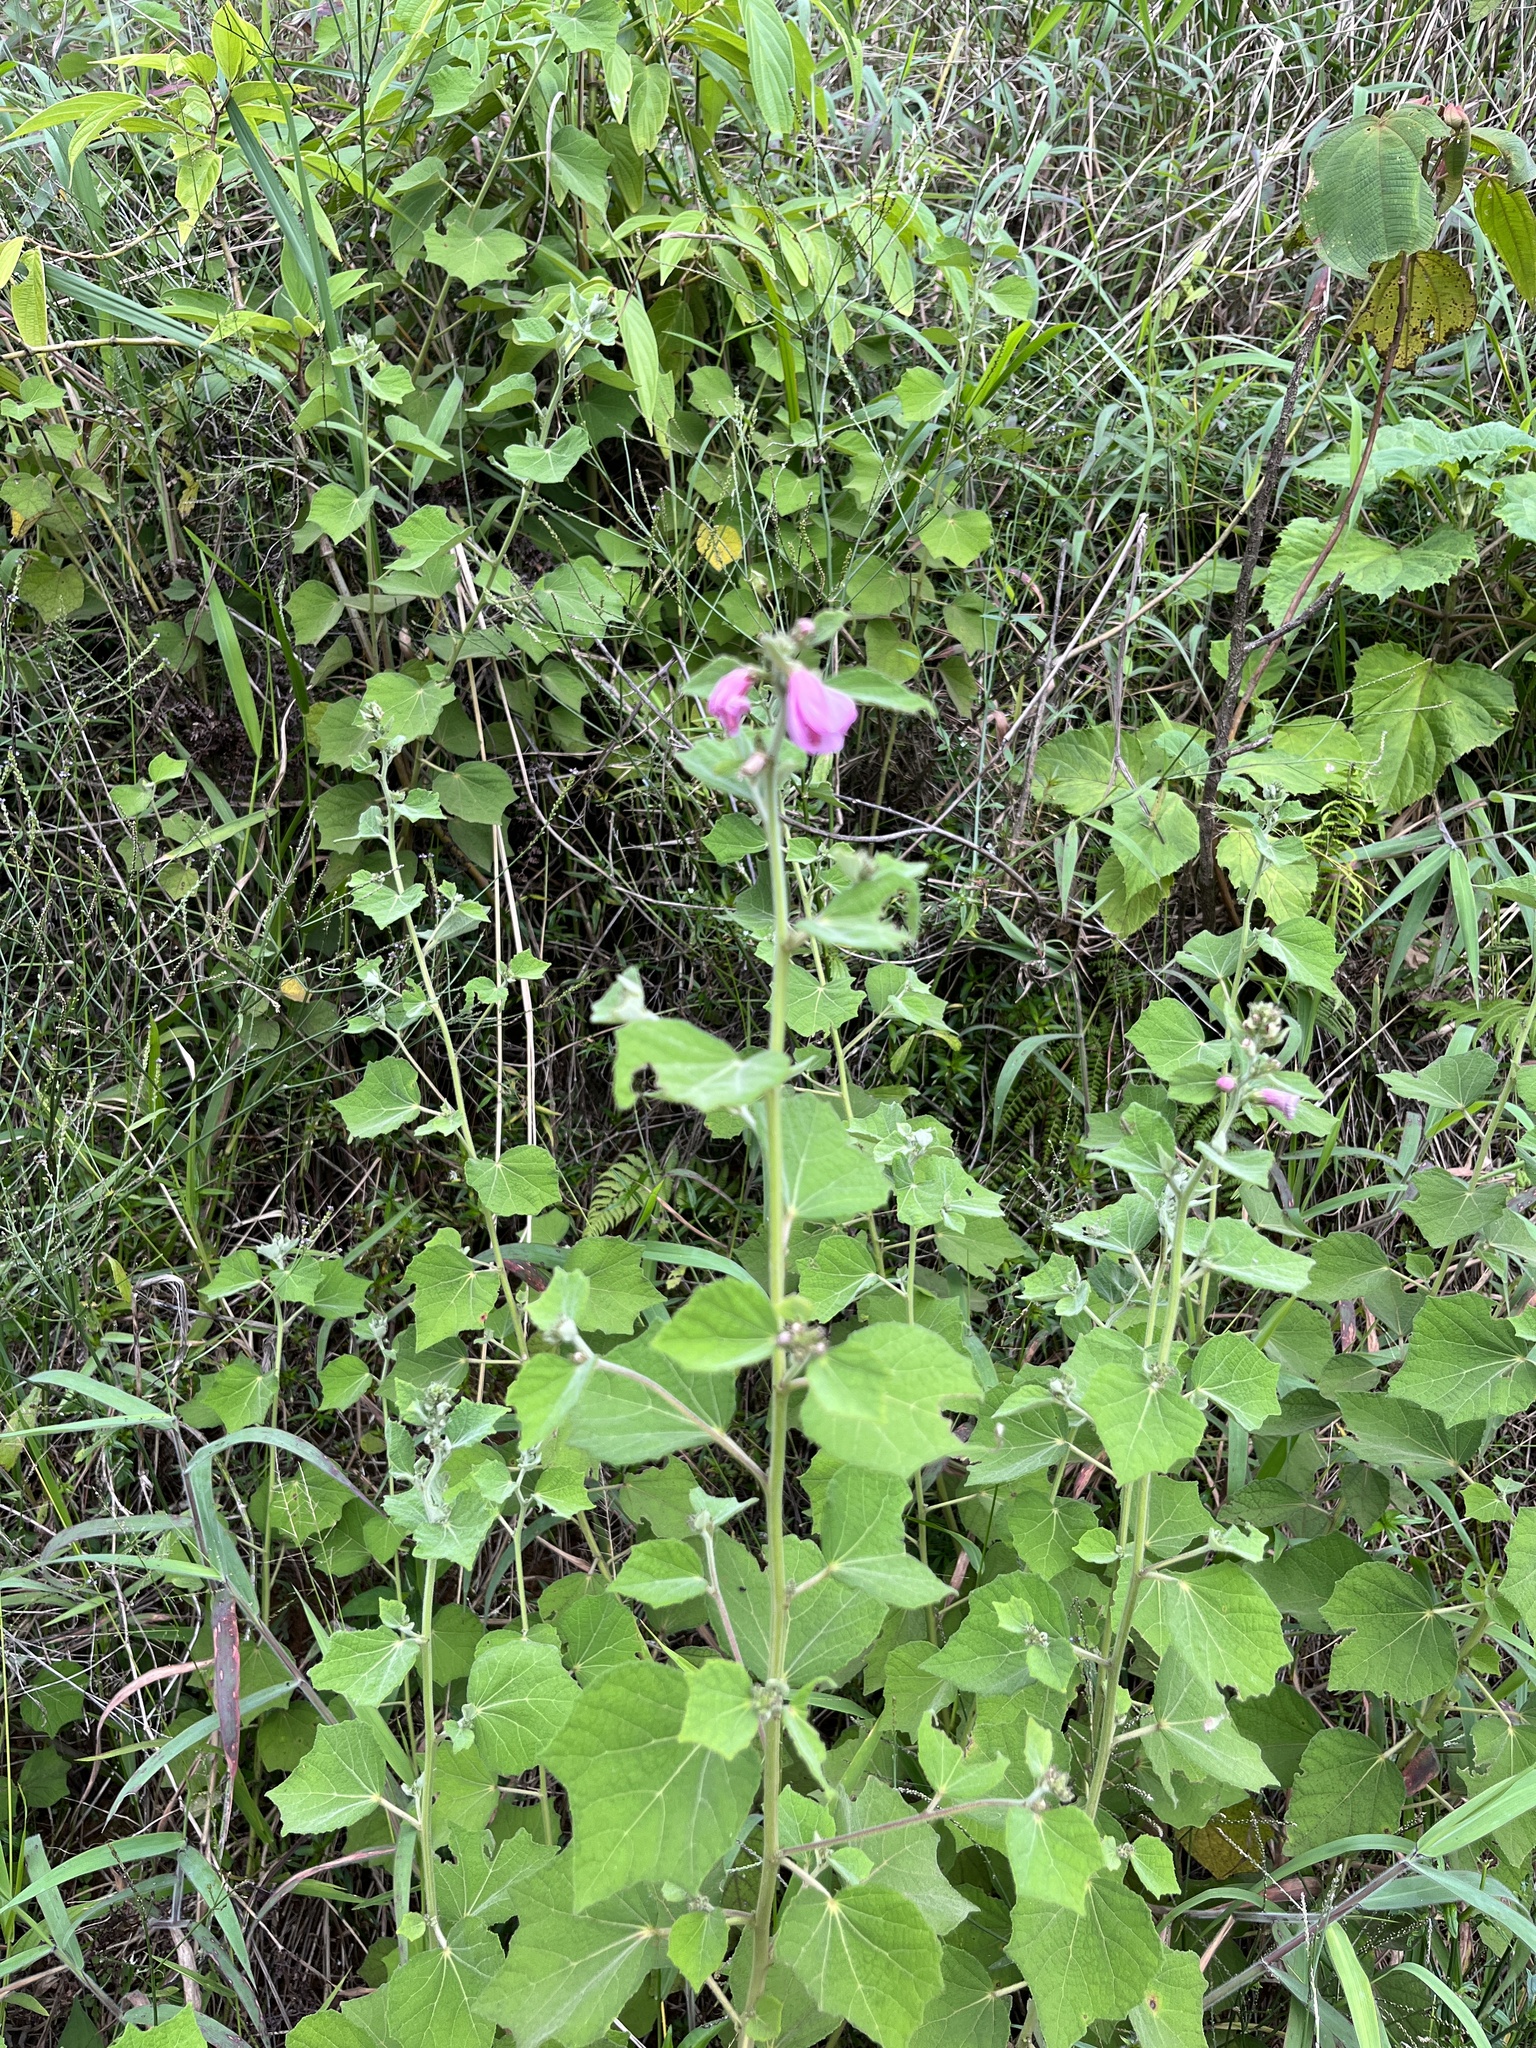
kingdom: Plantae
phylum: Tracheophyta
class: Magnoliopsida
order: Malvales
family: Malvaceae
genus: Urena
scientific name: Urena lobata
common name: Caesarweed
